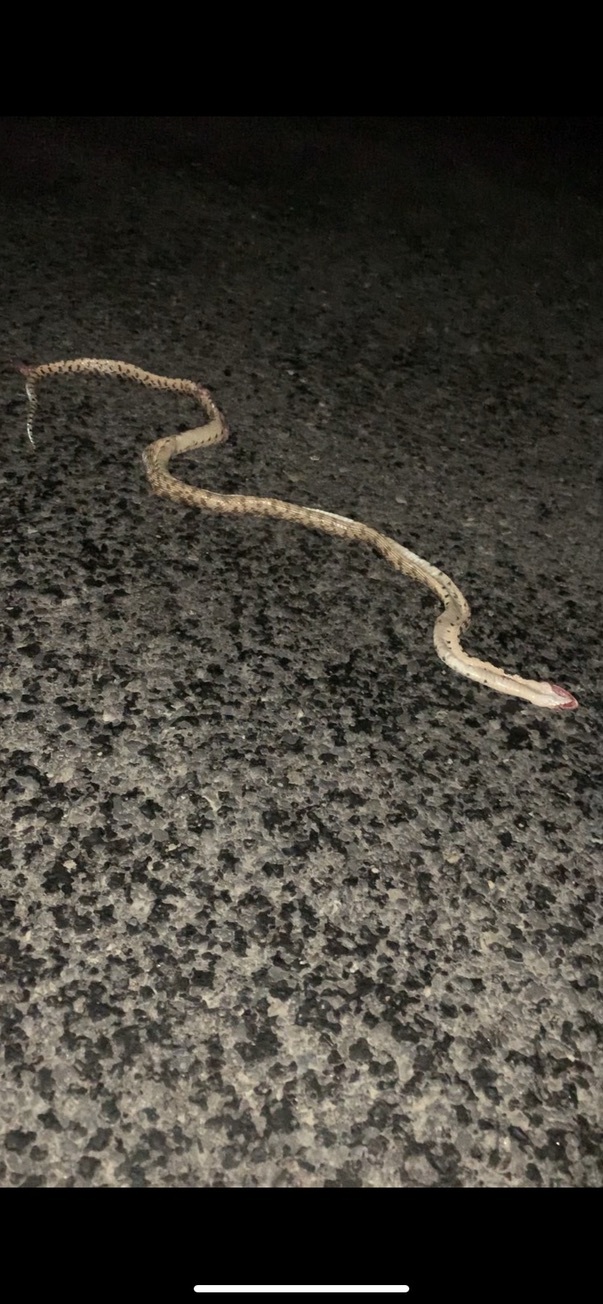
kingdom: Animalia
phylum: Chordata
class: Squamata
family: Colubridae
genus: Pituophis
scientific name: Pituophis catenifer
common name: Gopher snake
